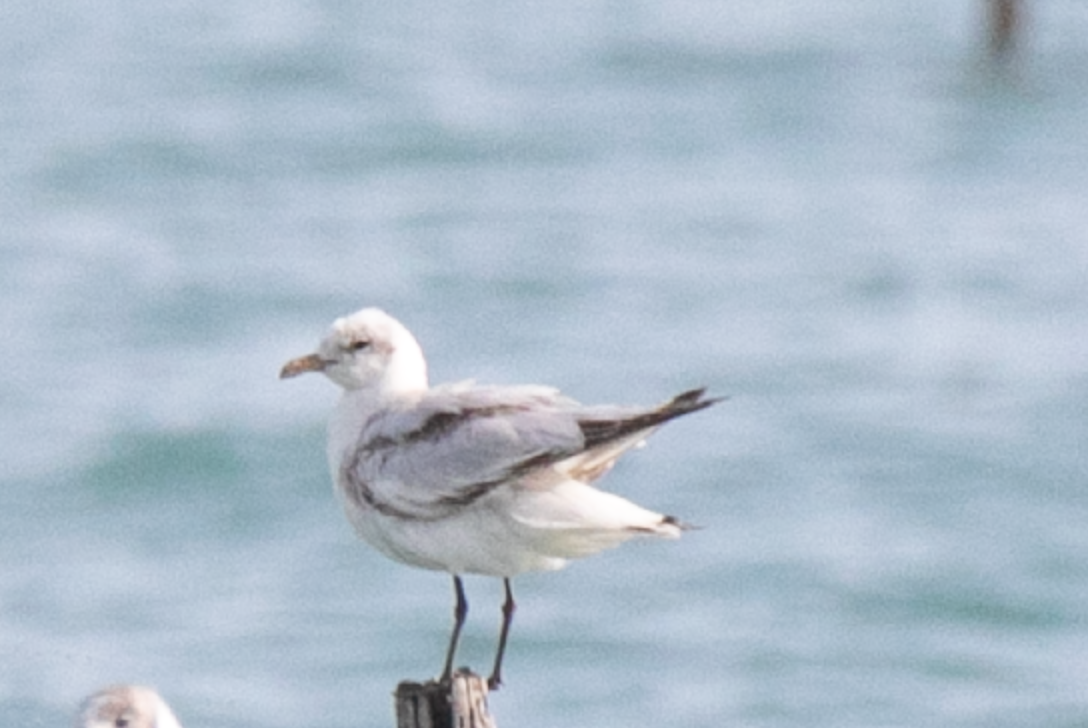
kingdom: Animalia
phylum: Chordata
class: Aves
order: Charadriiformes
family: Laridae
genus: Ichthyaetus
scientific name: Ichthyaetus melanocephalus
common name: Mediterranean gull
